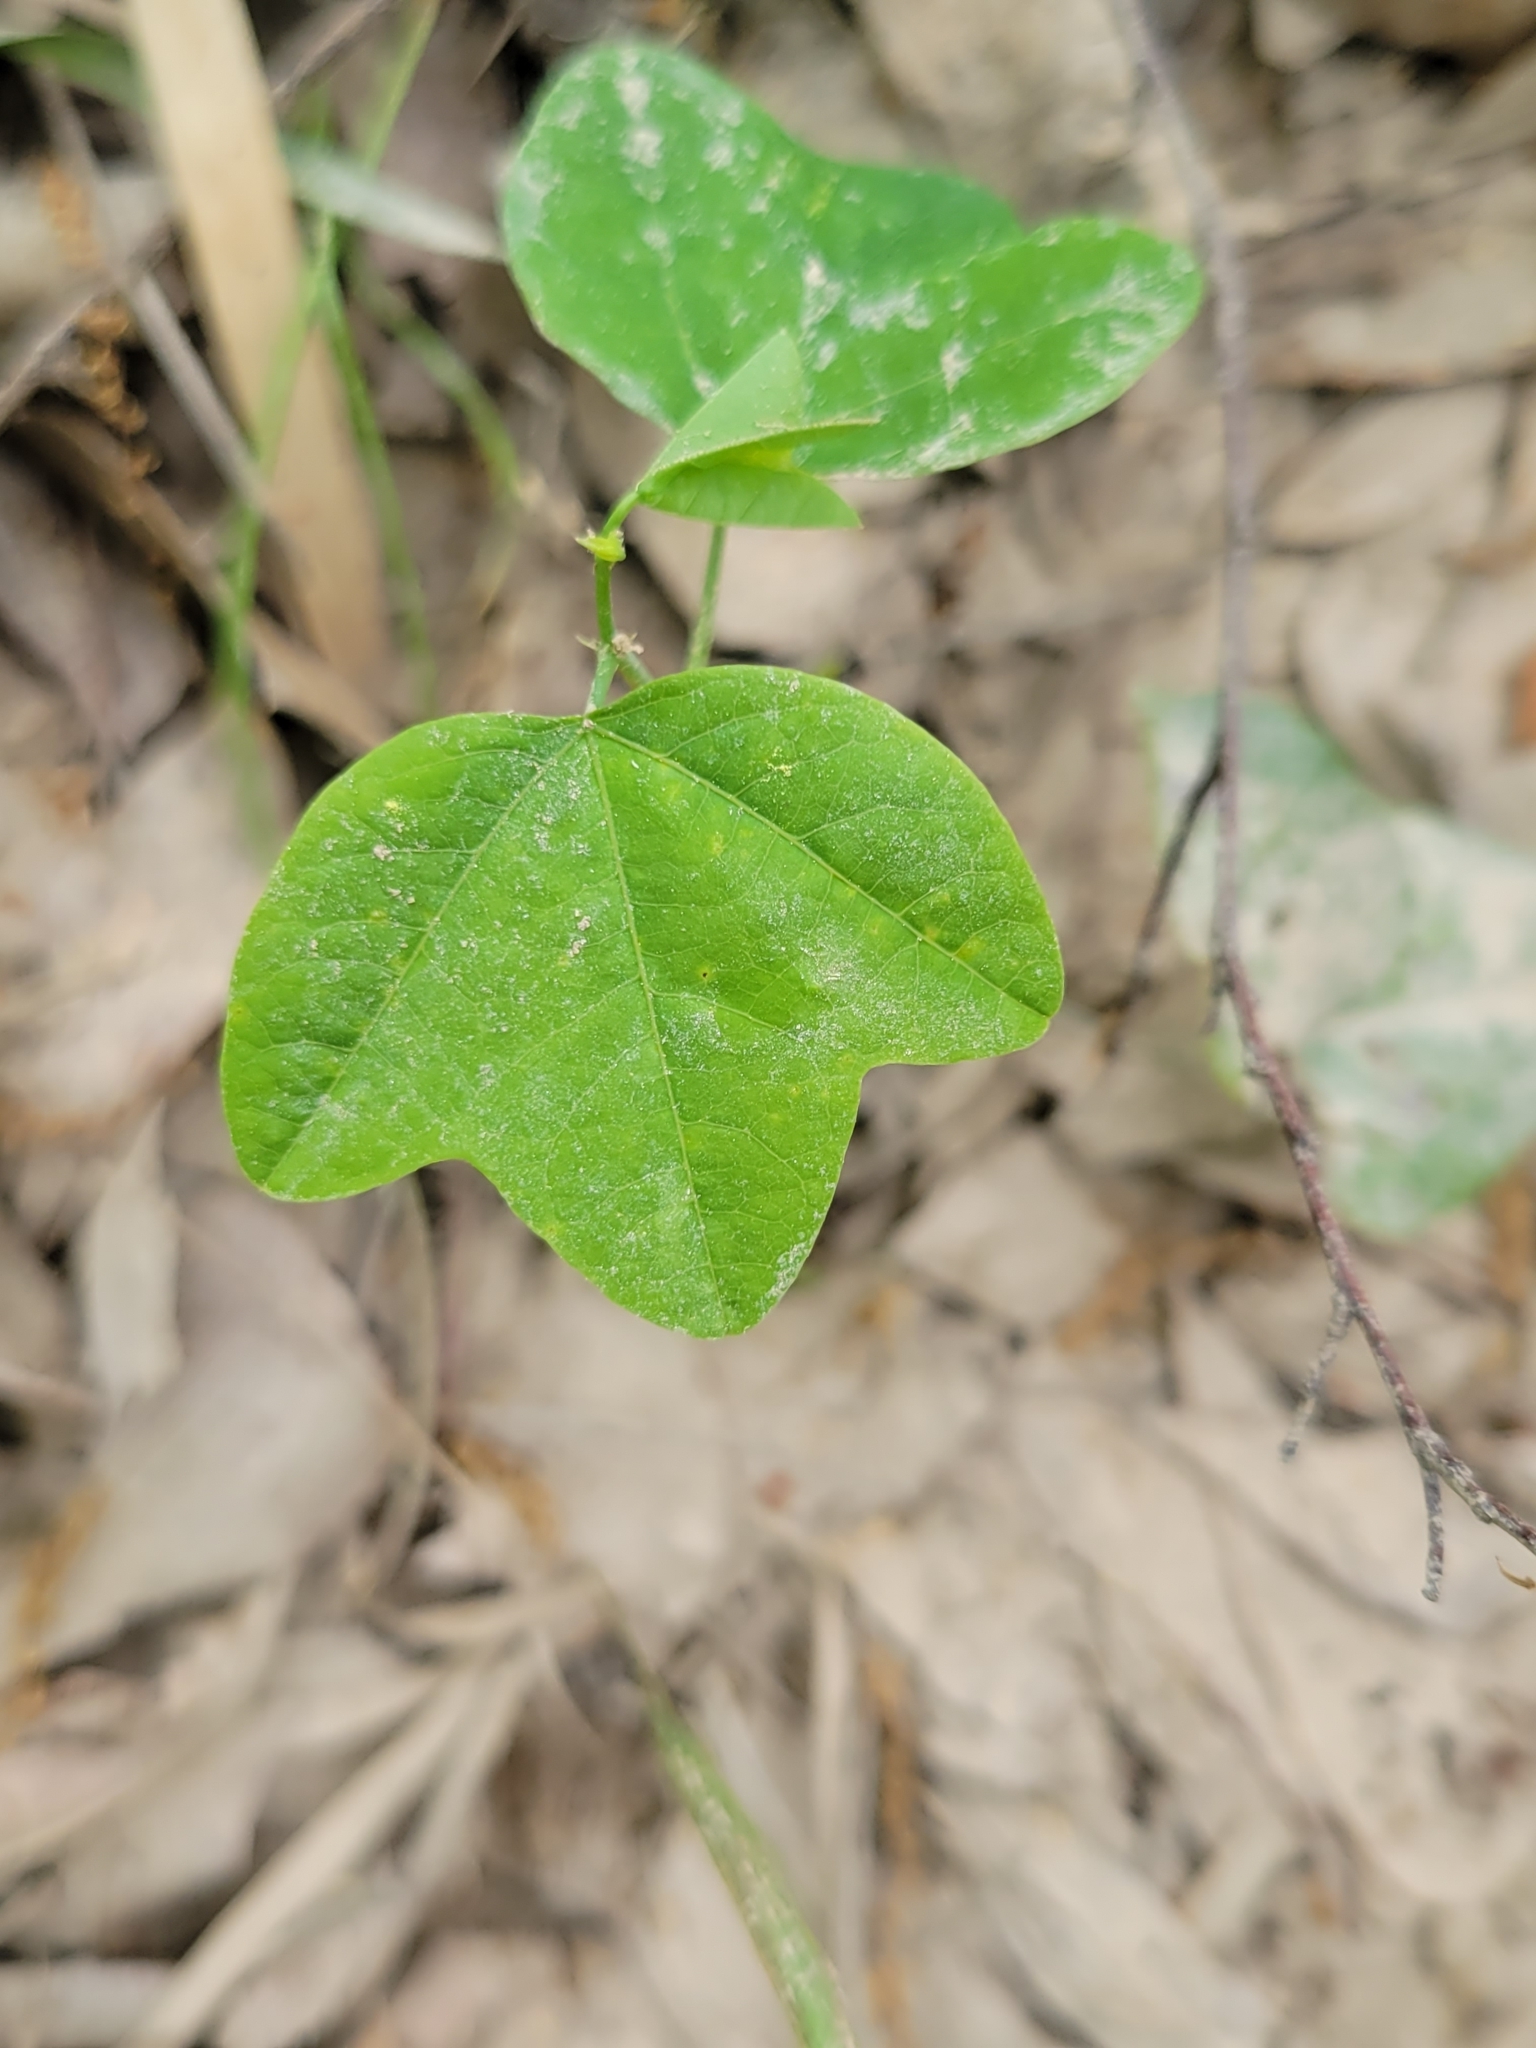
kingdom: Plantae
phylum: Tracheophyta
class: Magnoliopsida
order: Malpighiales
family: Passifloraceae
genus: Passiflora
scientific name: Passiflora lutea
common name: Yellow passionflower
